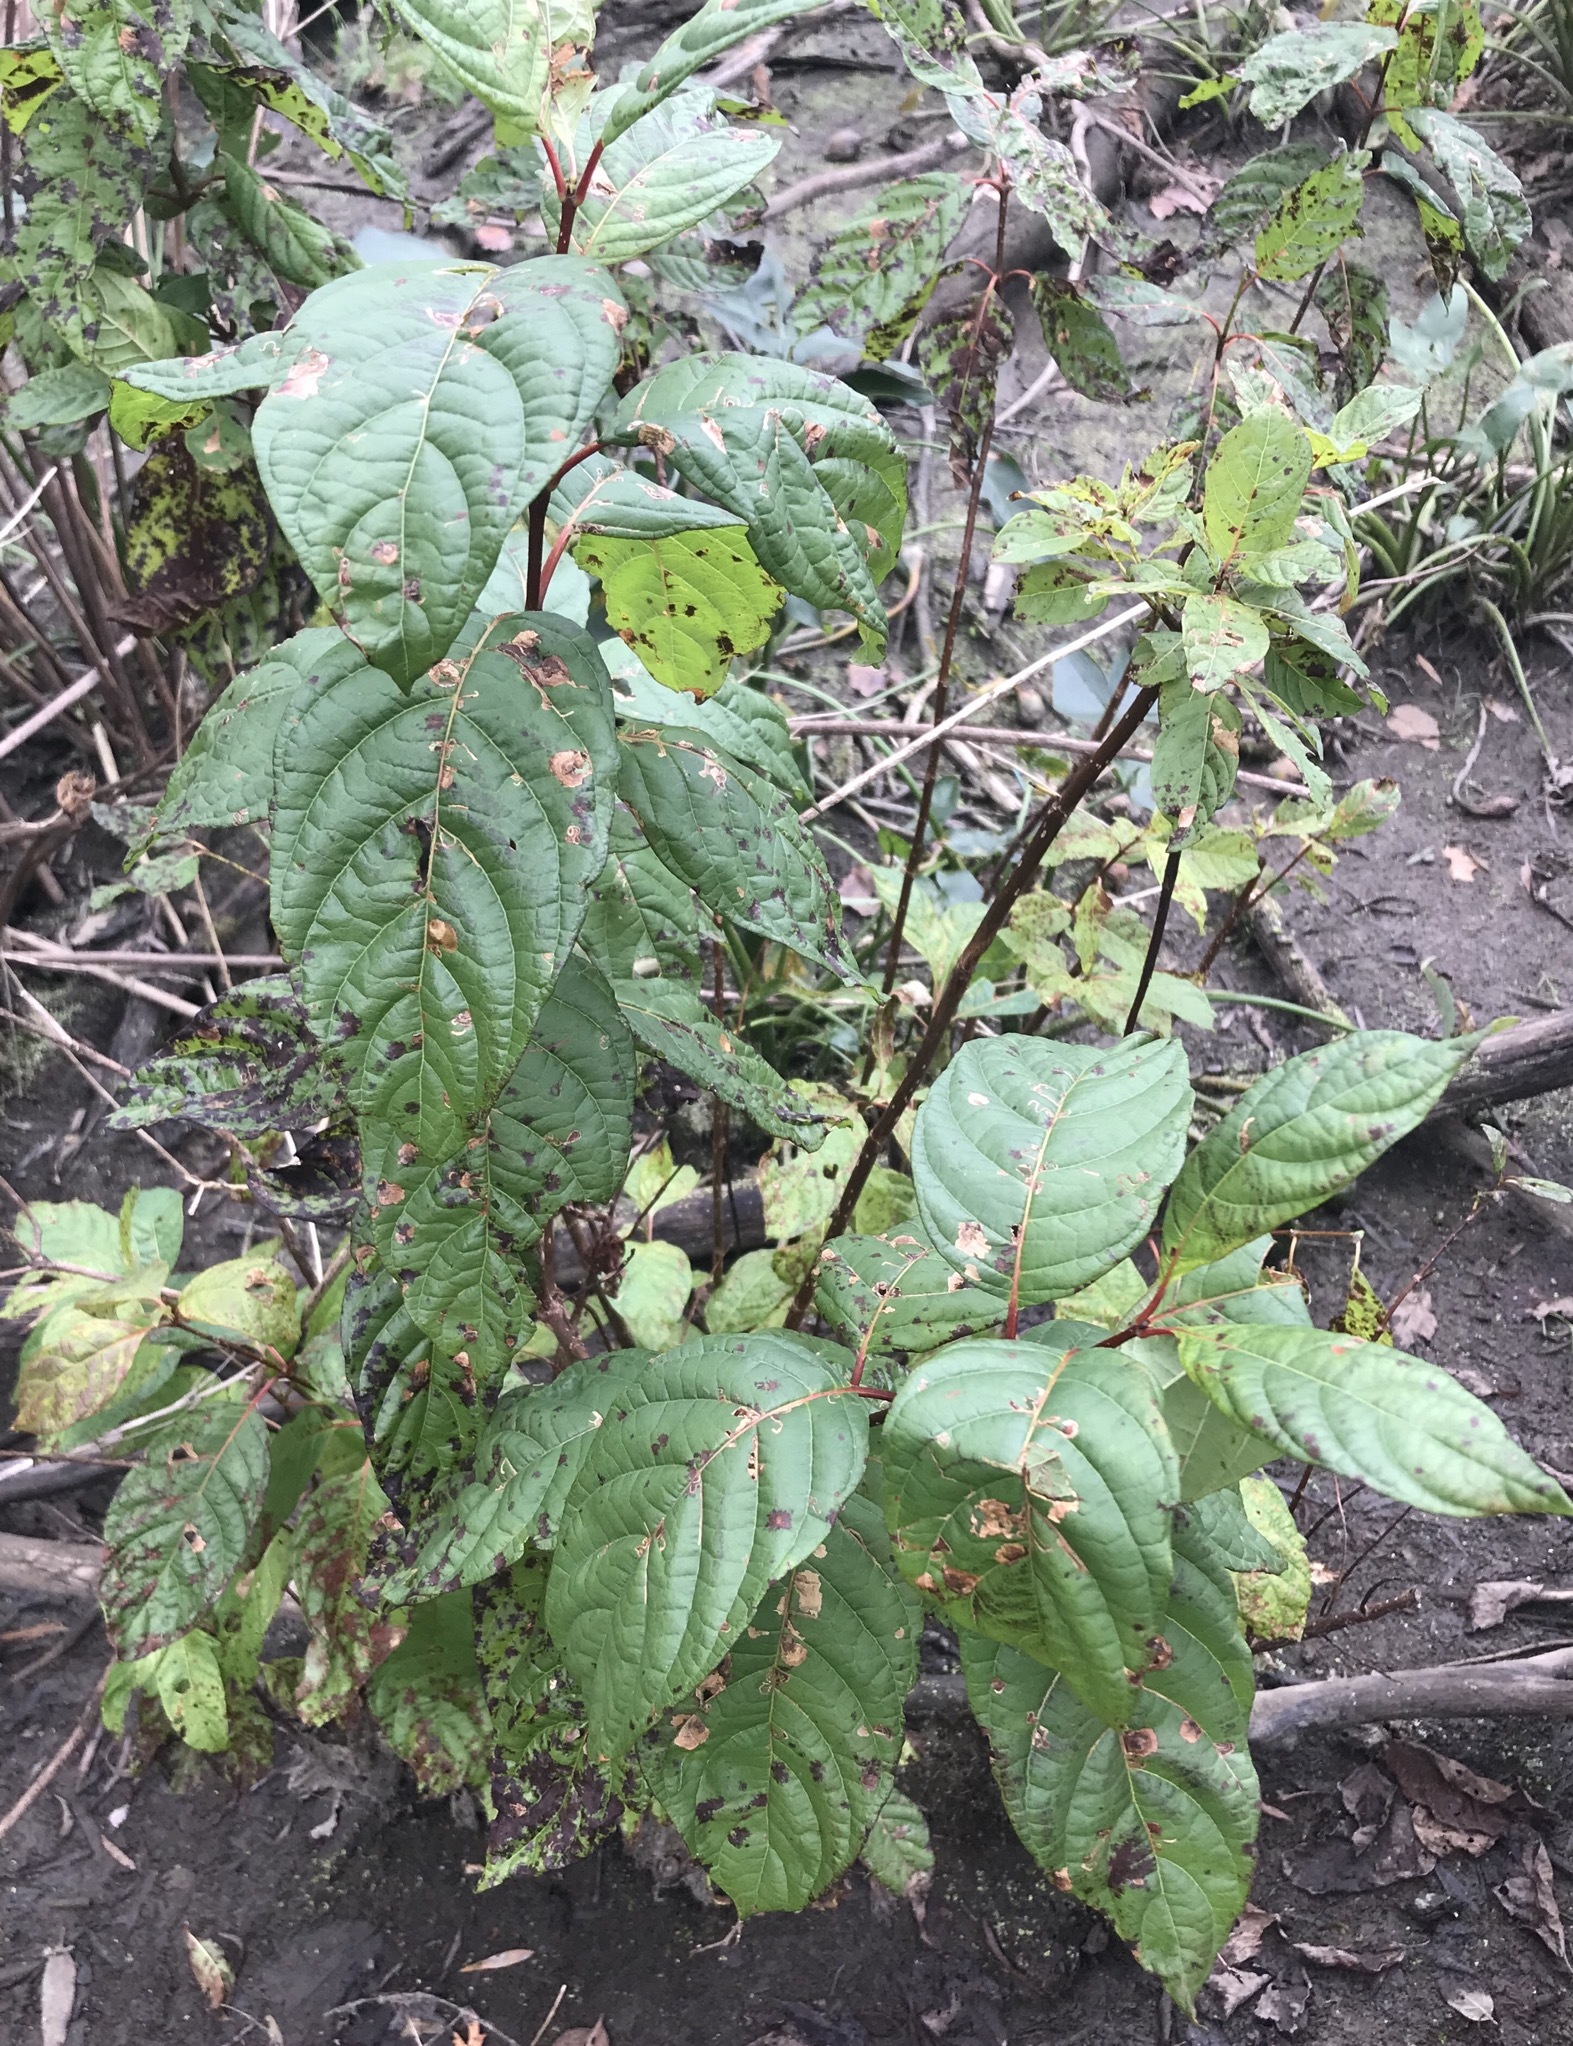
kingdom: Plantae
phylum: Tracheophyta
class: Magnoliopsida
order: Gentianales
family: Rubiaceae
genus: Cephalanthus
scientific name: Cephalanthus occidentalis
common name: Button-willow
